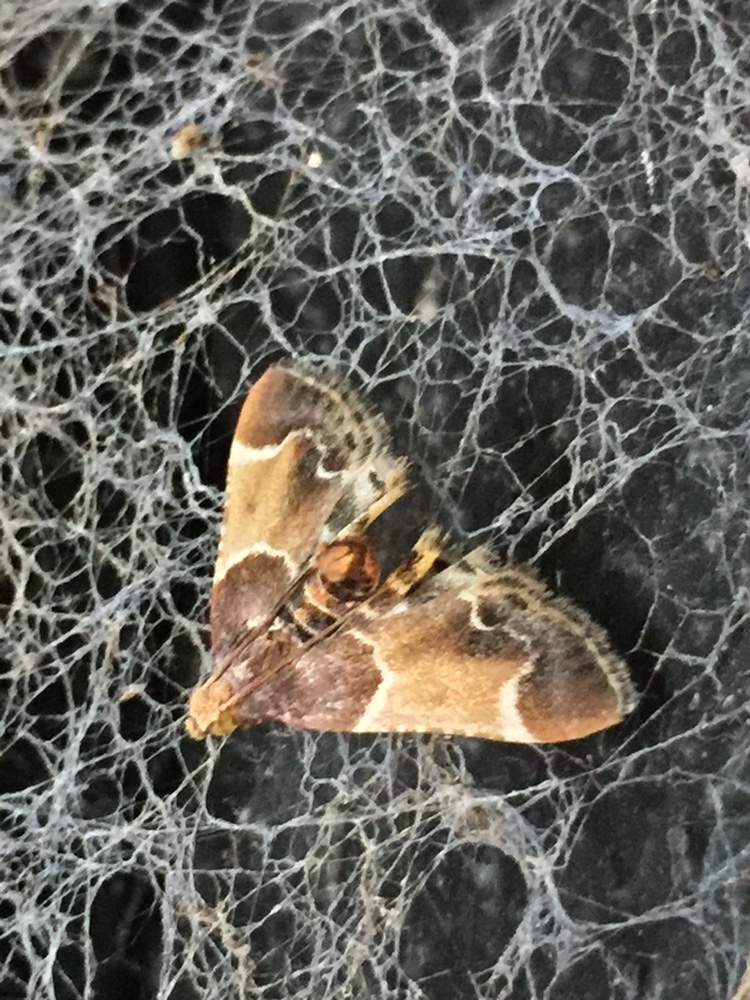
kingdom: Animalia
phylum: Arthropoda
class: Insecta
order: Lepidoptera
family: Pyralidae
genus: Pyralis
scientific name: Pyralis farinalis
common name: Meal moth
